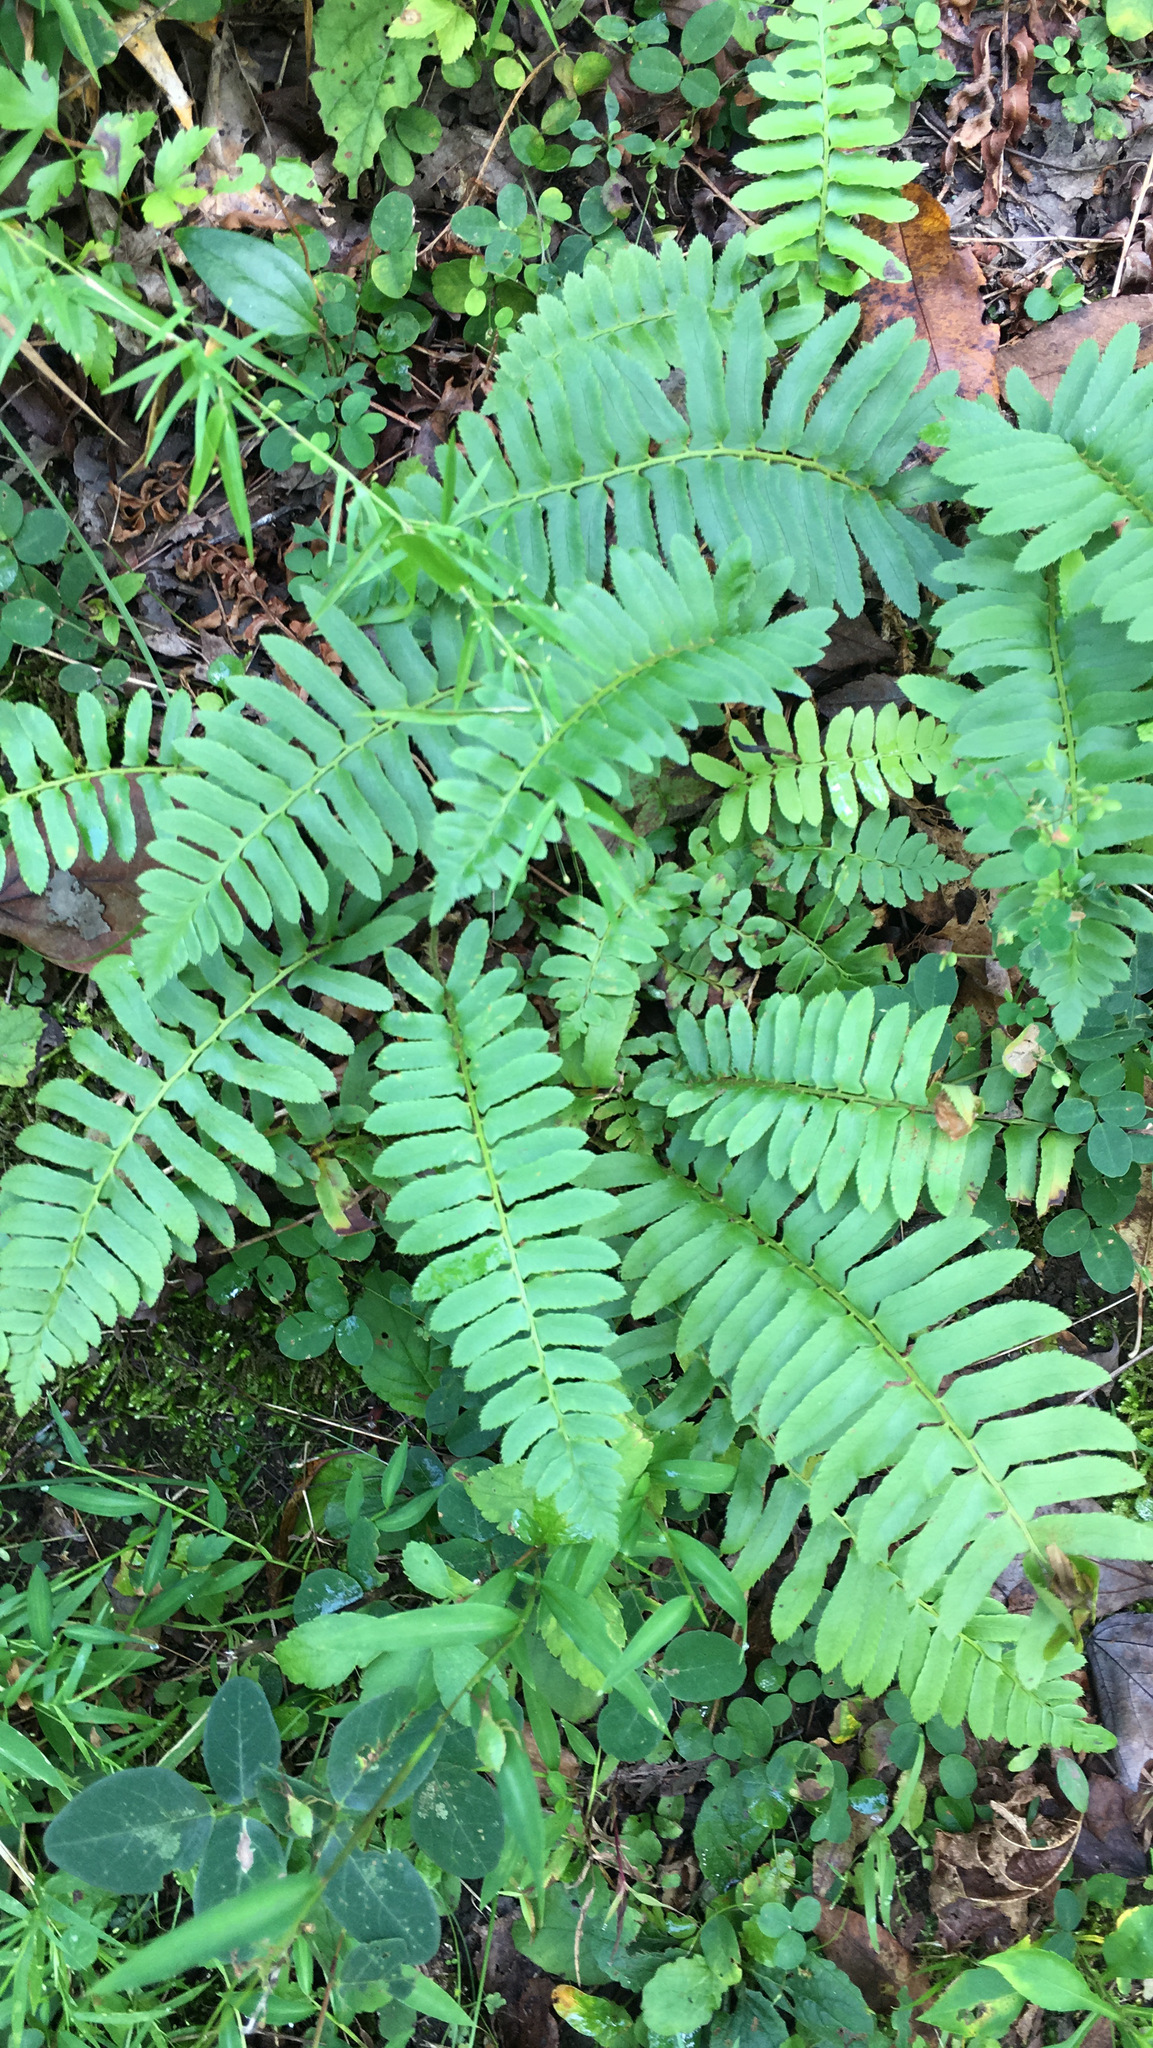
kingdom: Plantae
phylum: Tracheophyta
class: Polypodiopsida
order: Polypodiales
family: Dryopteridaceae
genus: Polystichum
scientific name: Polystichum acrostichoides
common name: Christmas fern
